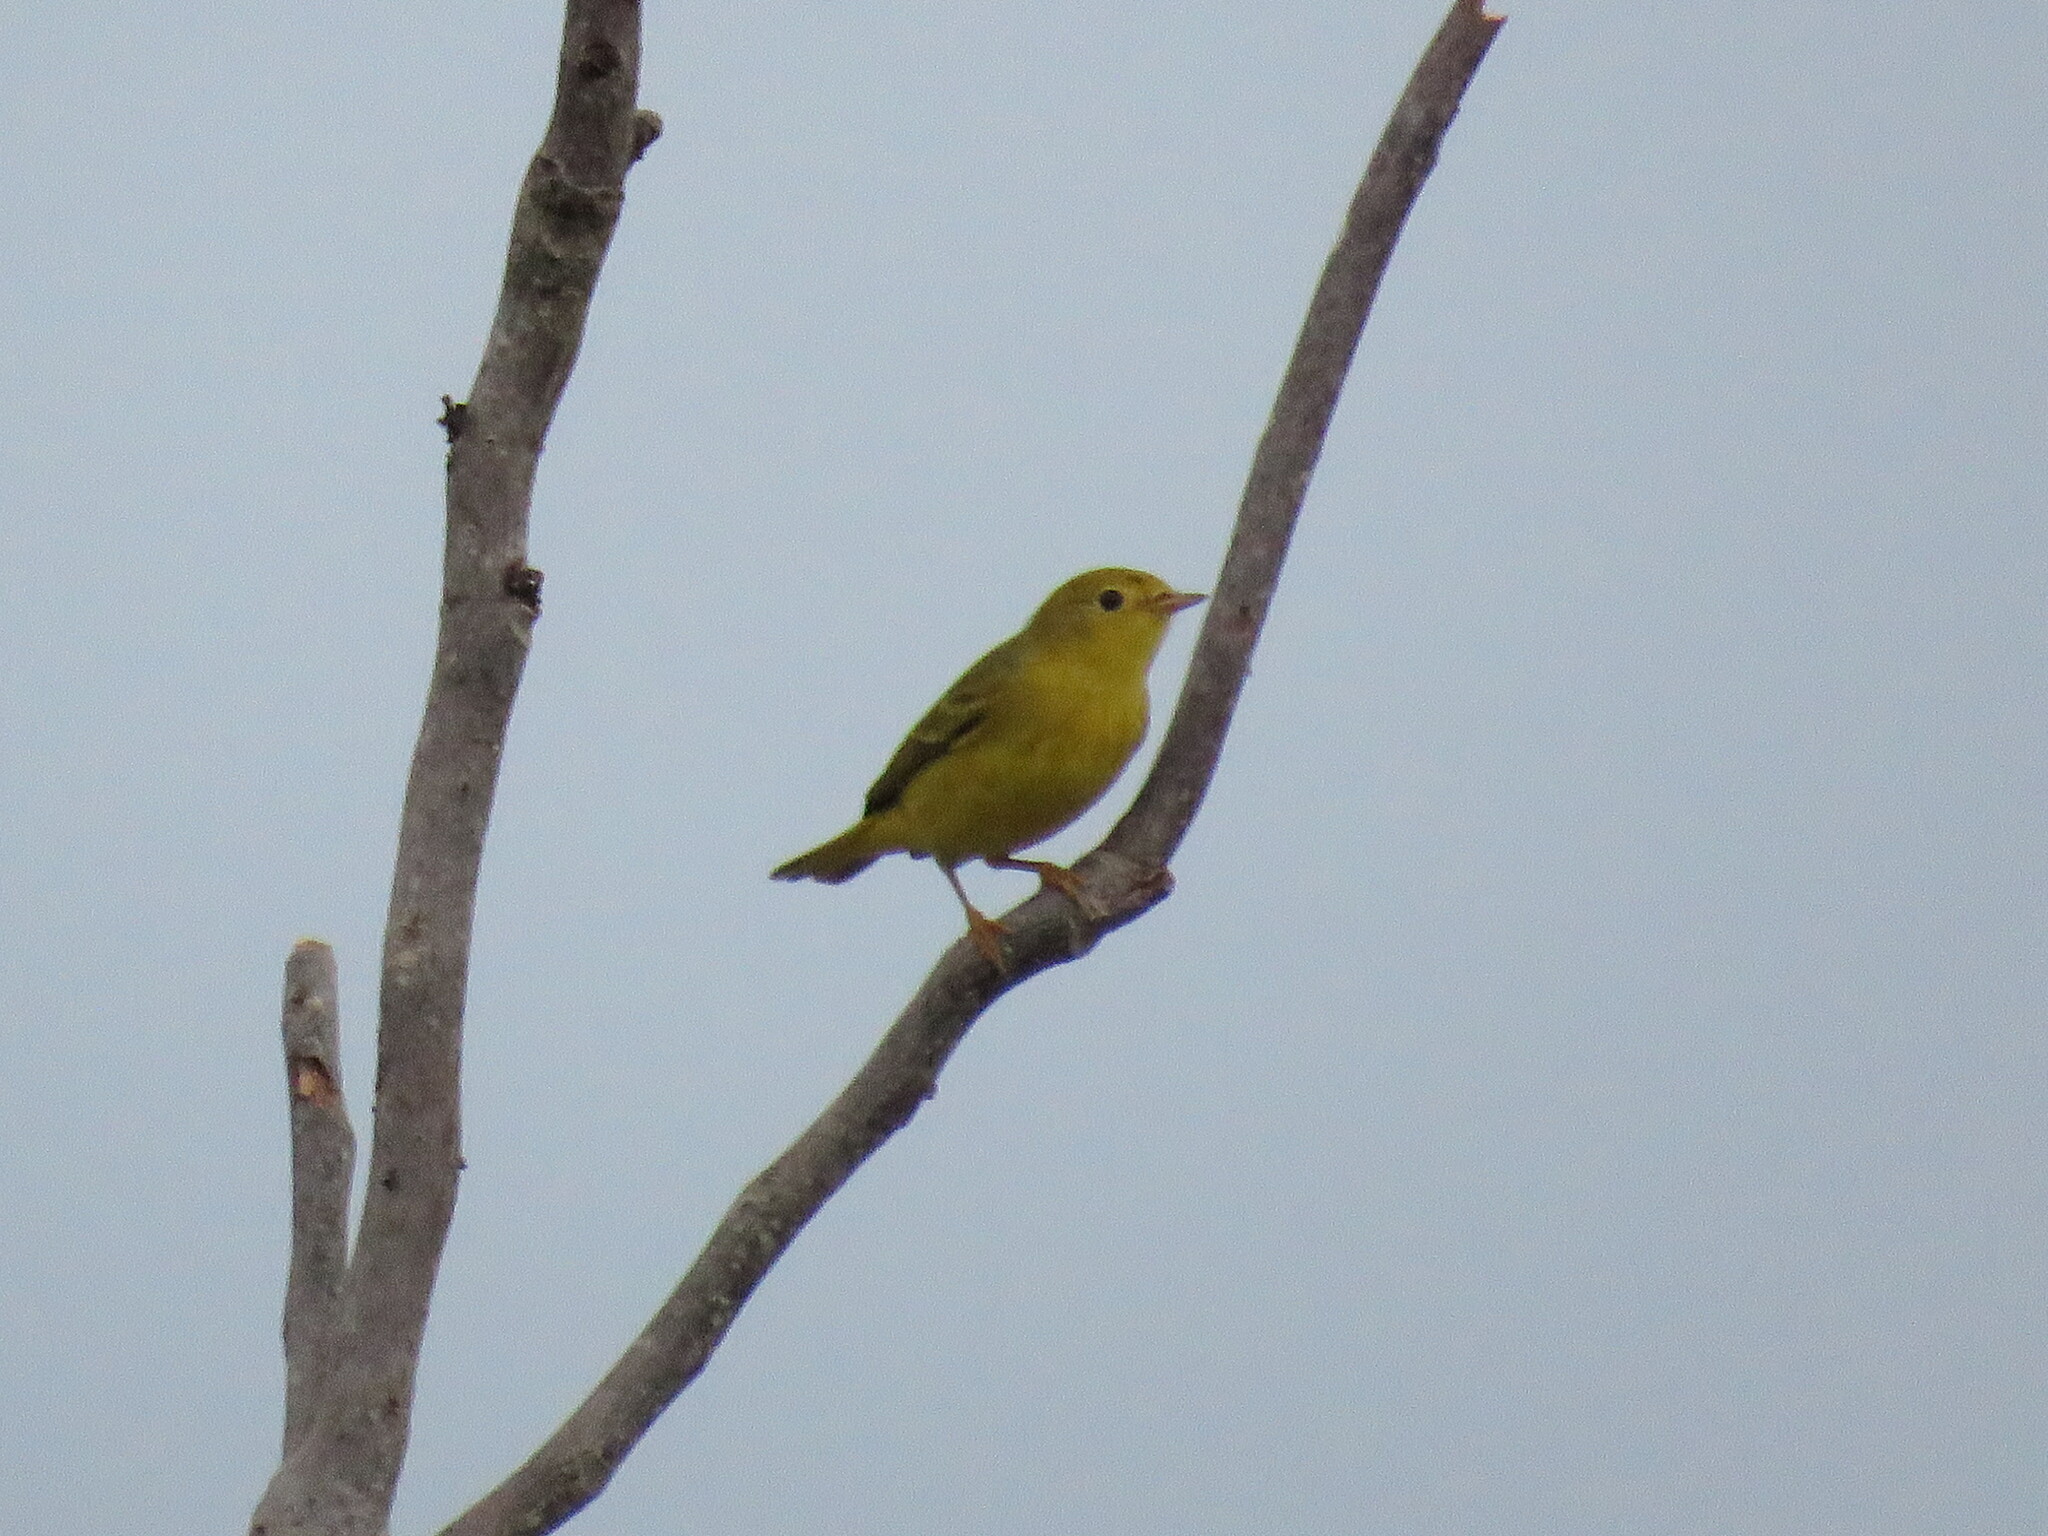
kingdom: Animalia
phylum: Chordata
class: Aves
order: Passeriformes
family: Parulidae
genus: Setophaga
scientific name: Setophaga petechia
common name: Yellow warbler
